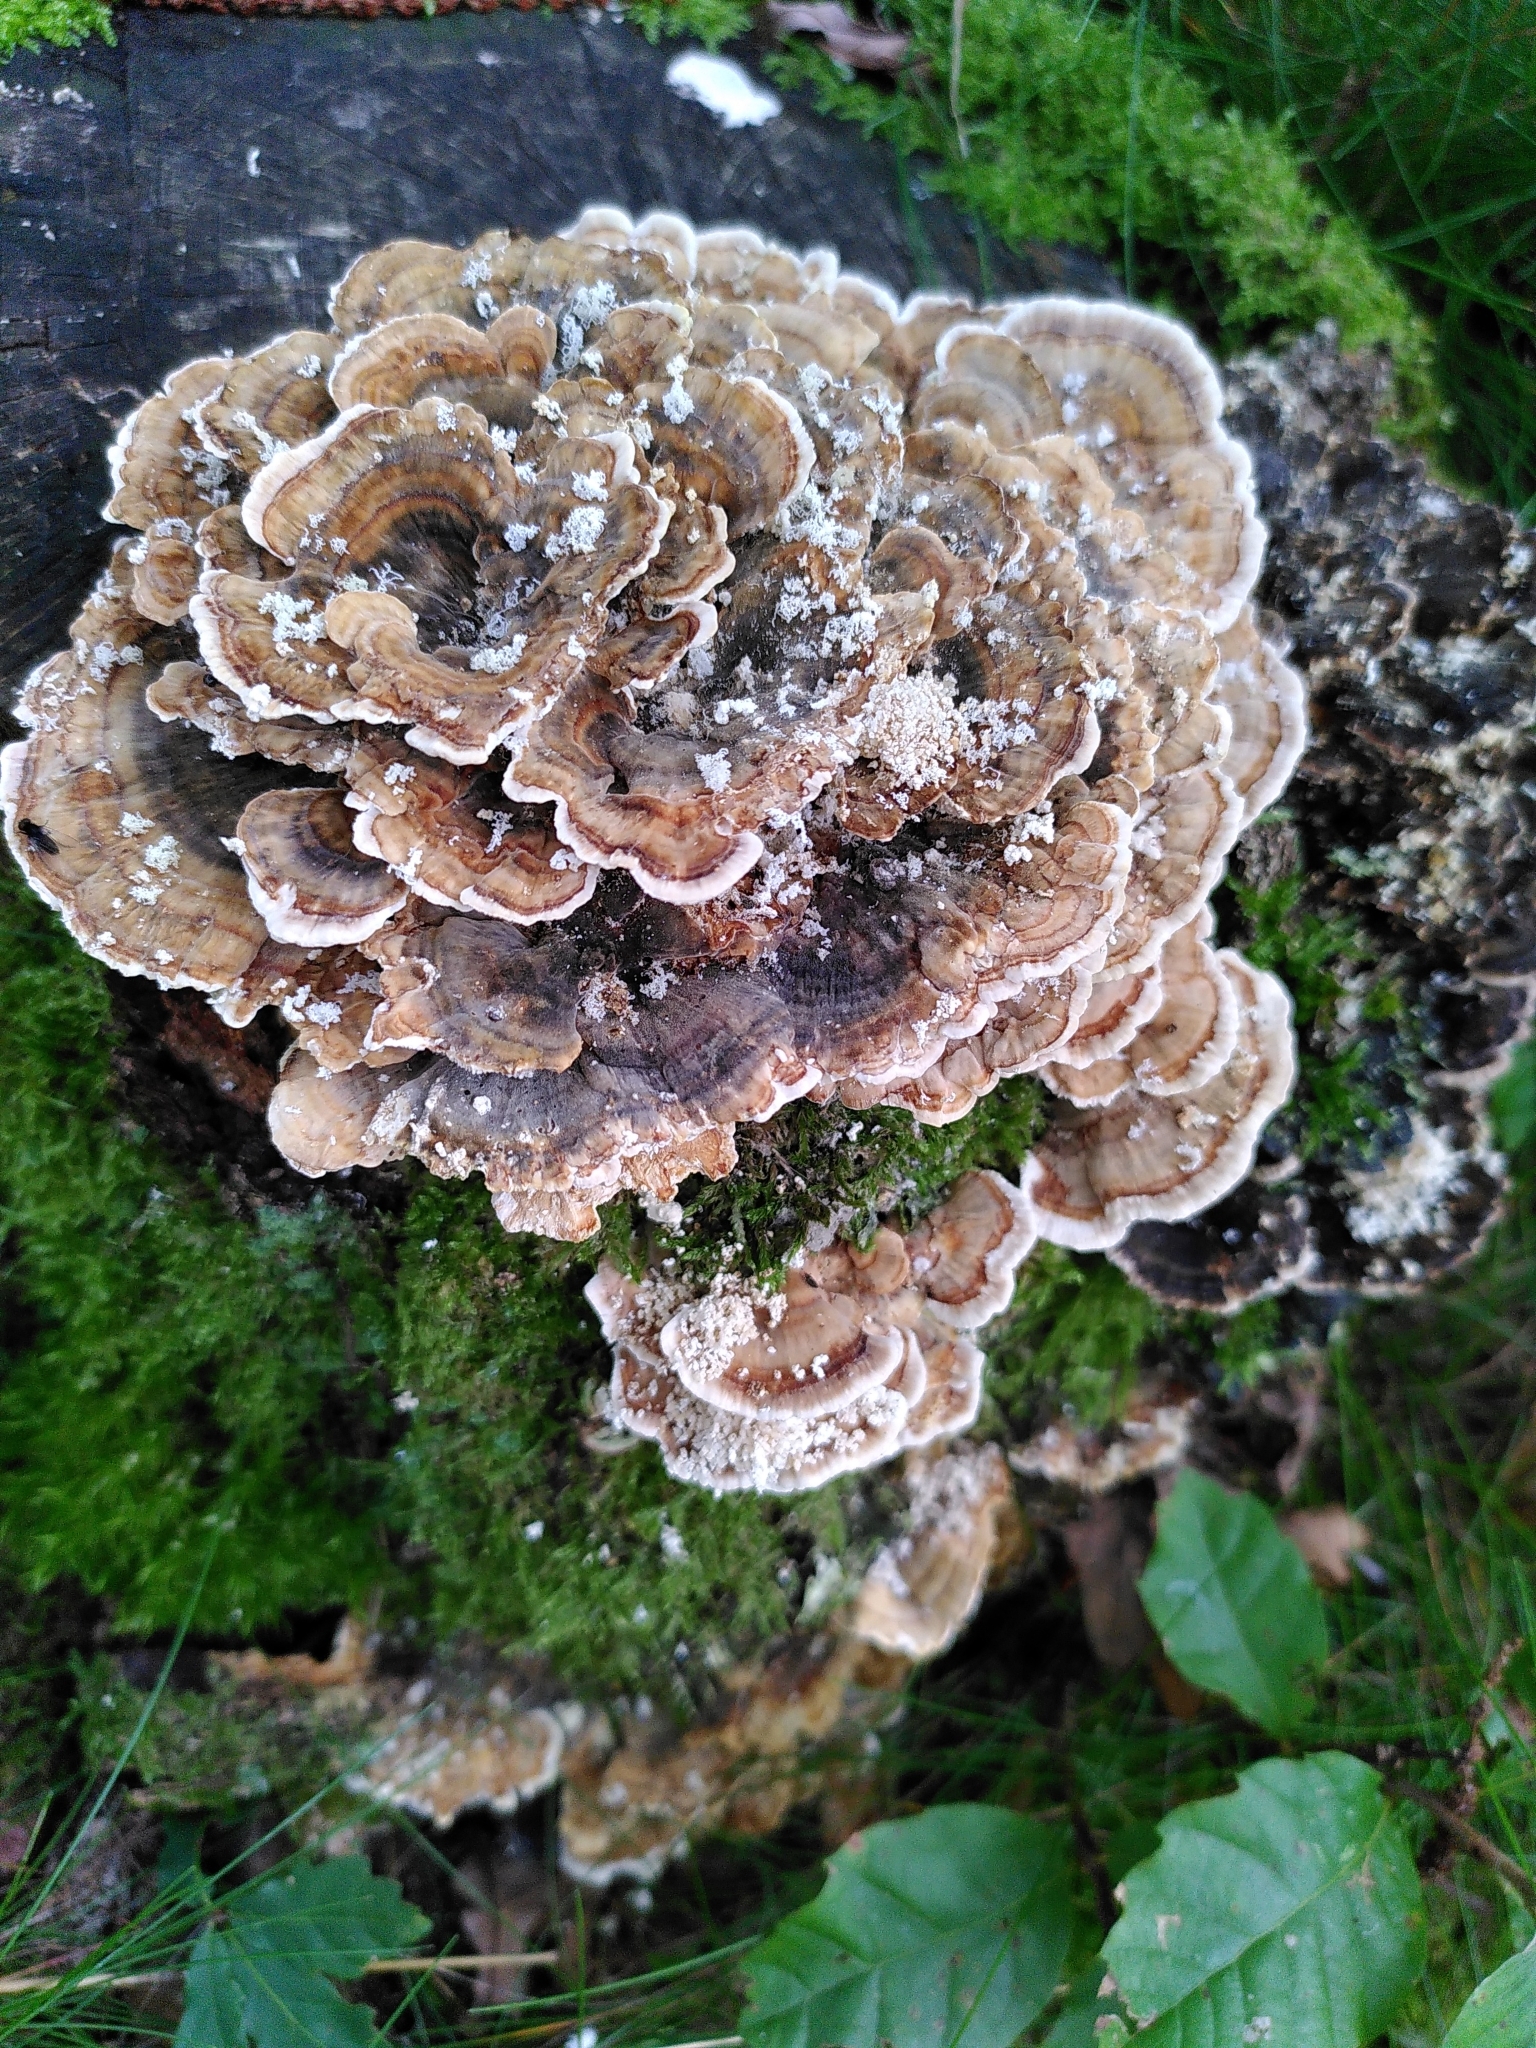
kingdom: Fungi
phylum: Basidiomycota
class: Agaricomycetes
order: Polyporales
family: Polyporaceae
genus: Trametes
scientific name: Trametes versicolor
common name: Turkeytail
